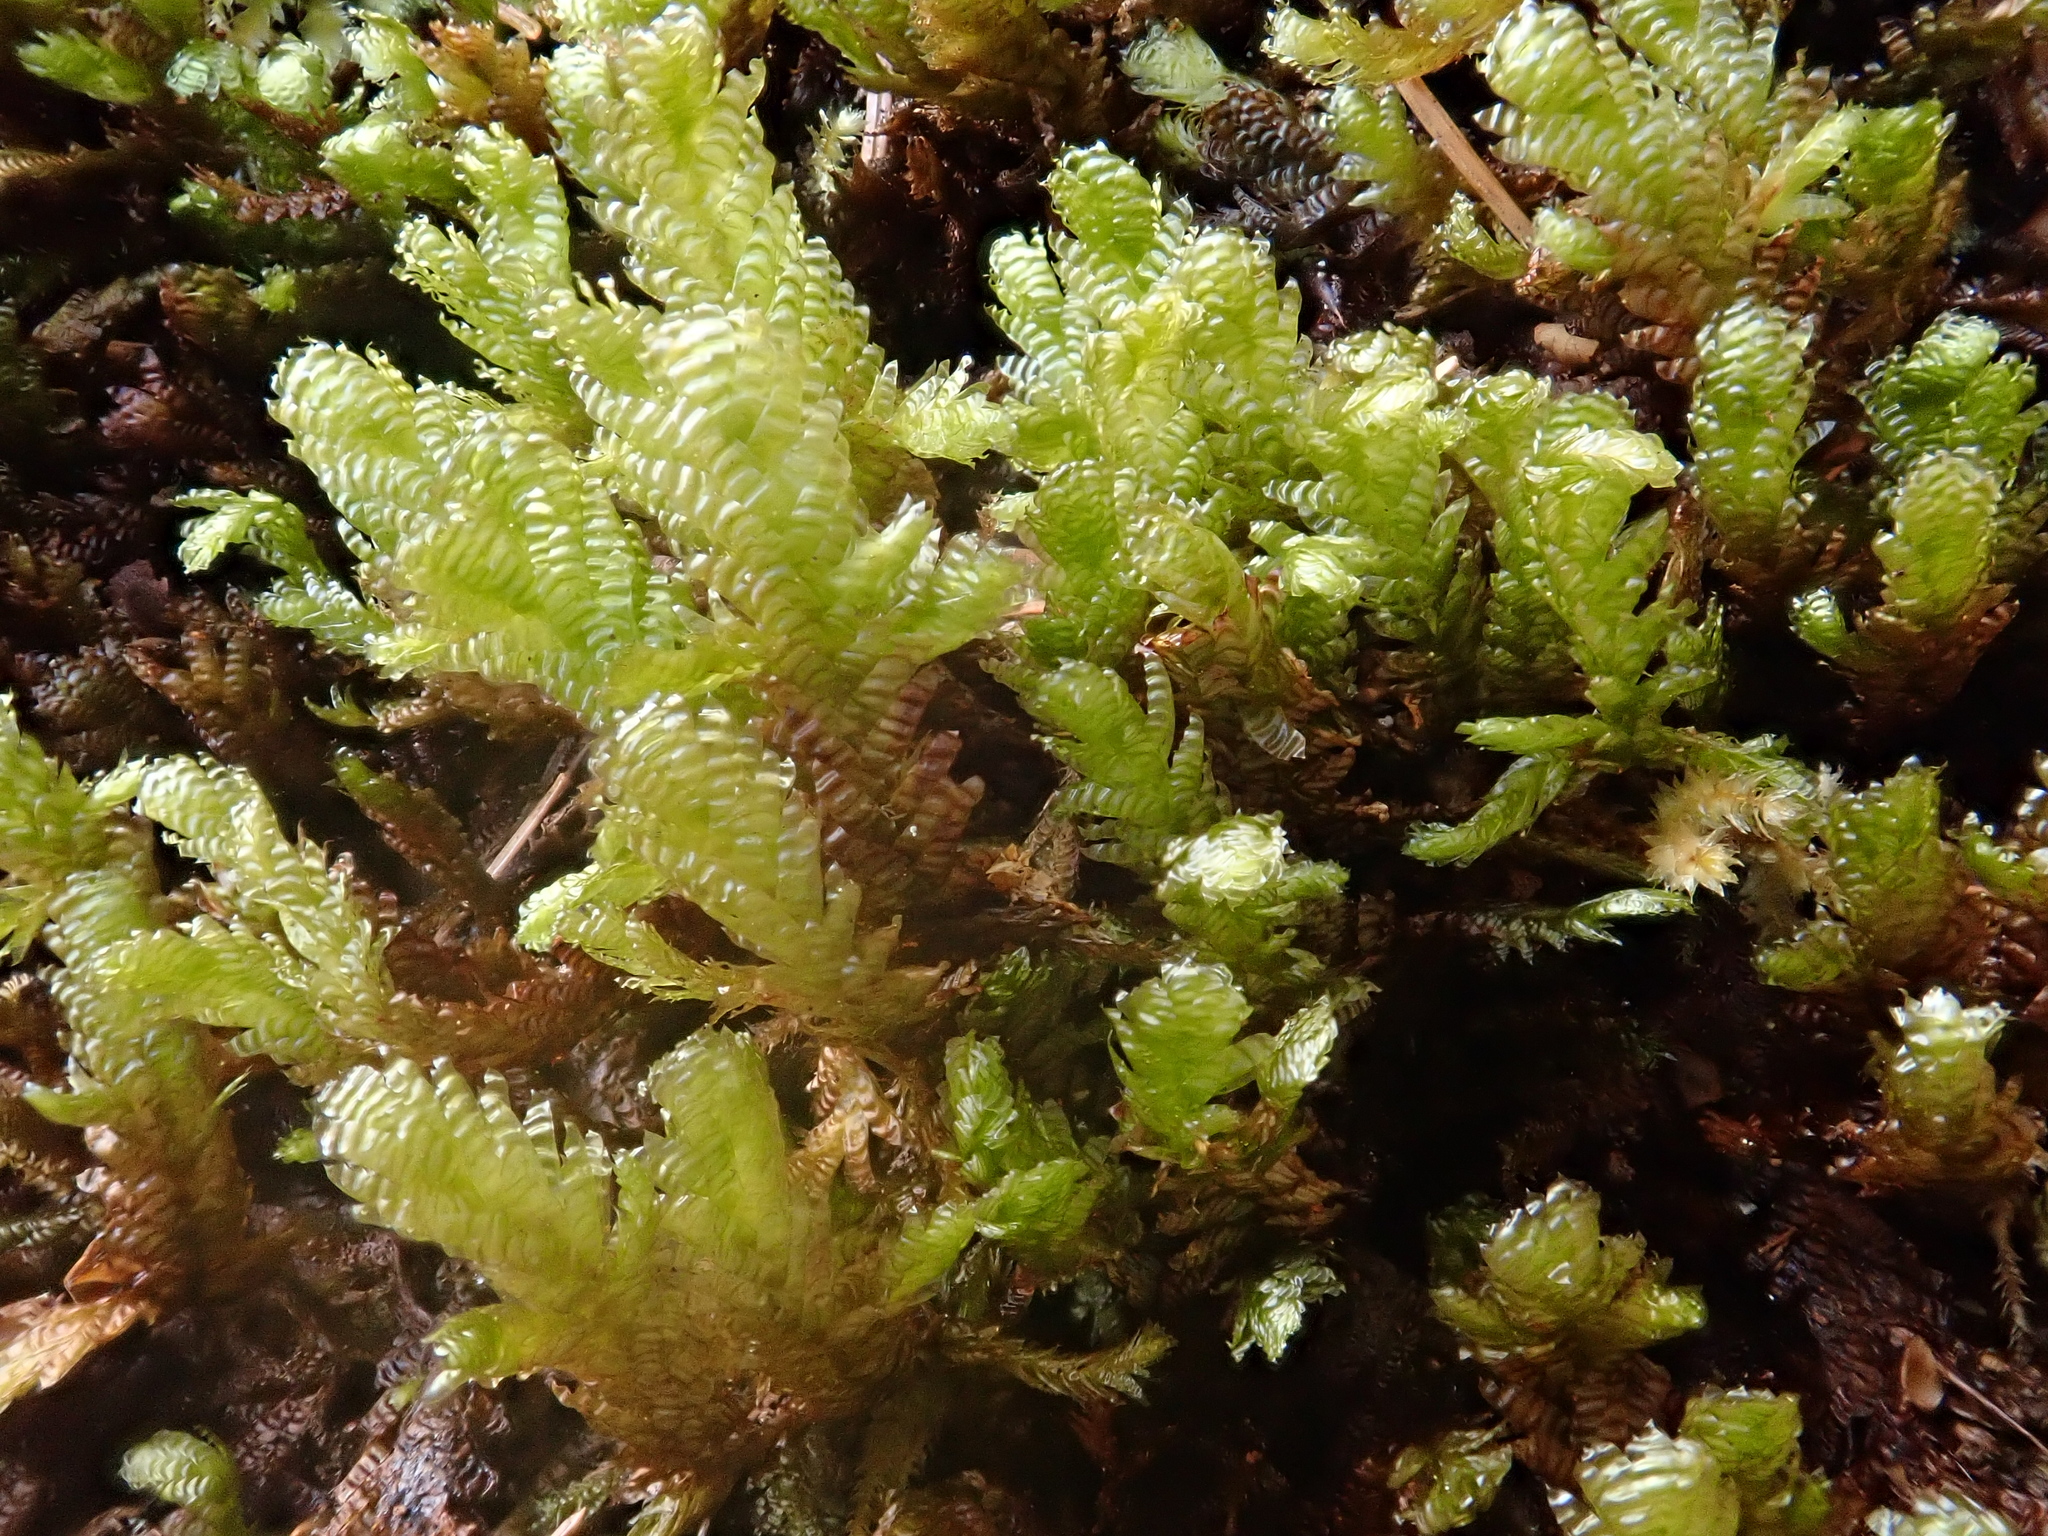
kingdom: Plantae
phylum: Bryophyta
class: Bryopsida
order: Hypnales
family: Neckeraceae
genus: Exsertotheca
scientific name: Exsertotheca crispa
